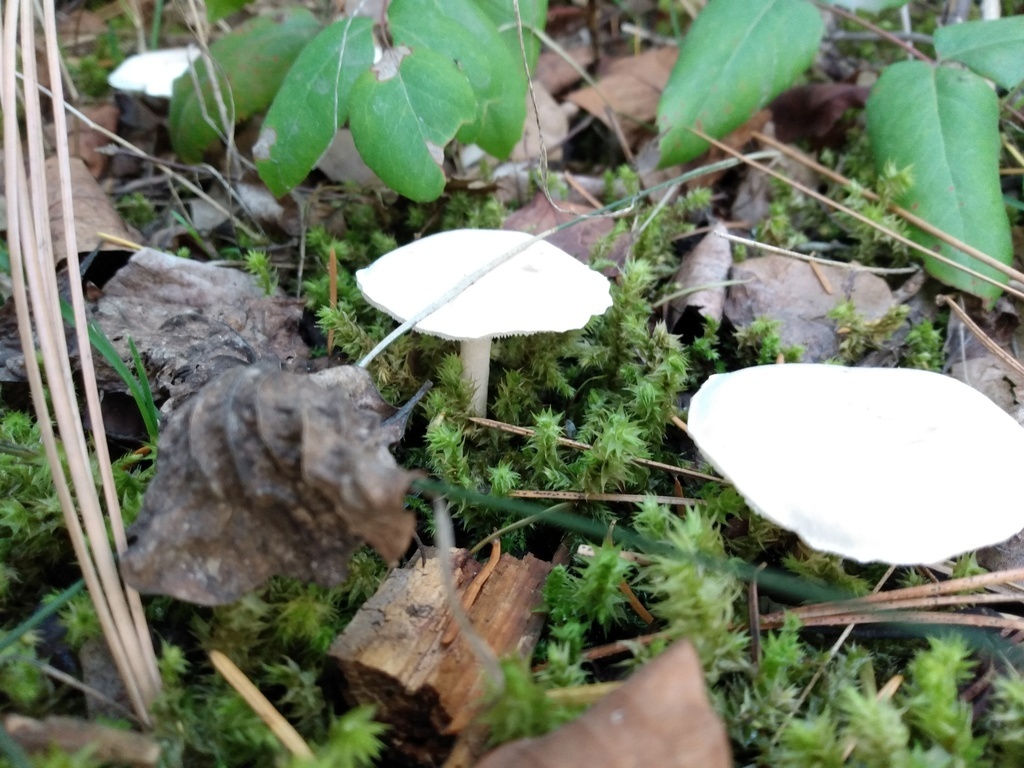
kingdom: Fungi
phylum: Basidiomycota
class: Agaricomycetes
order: Agaricales
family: Entolomataceae
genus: Clitopilus
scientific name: Clitopilus prunulus
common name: The miller
